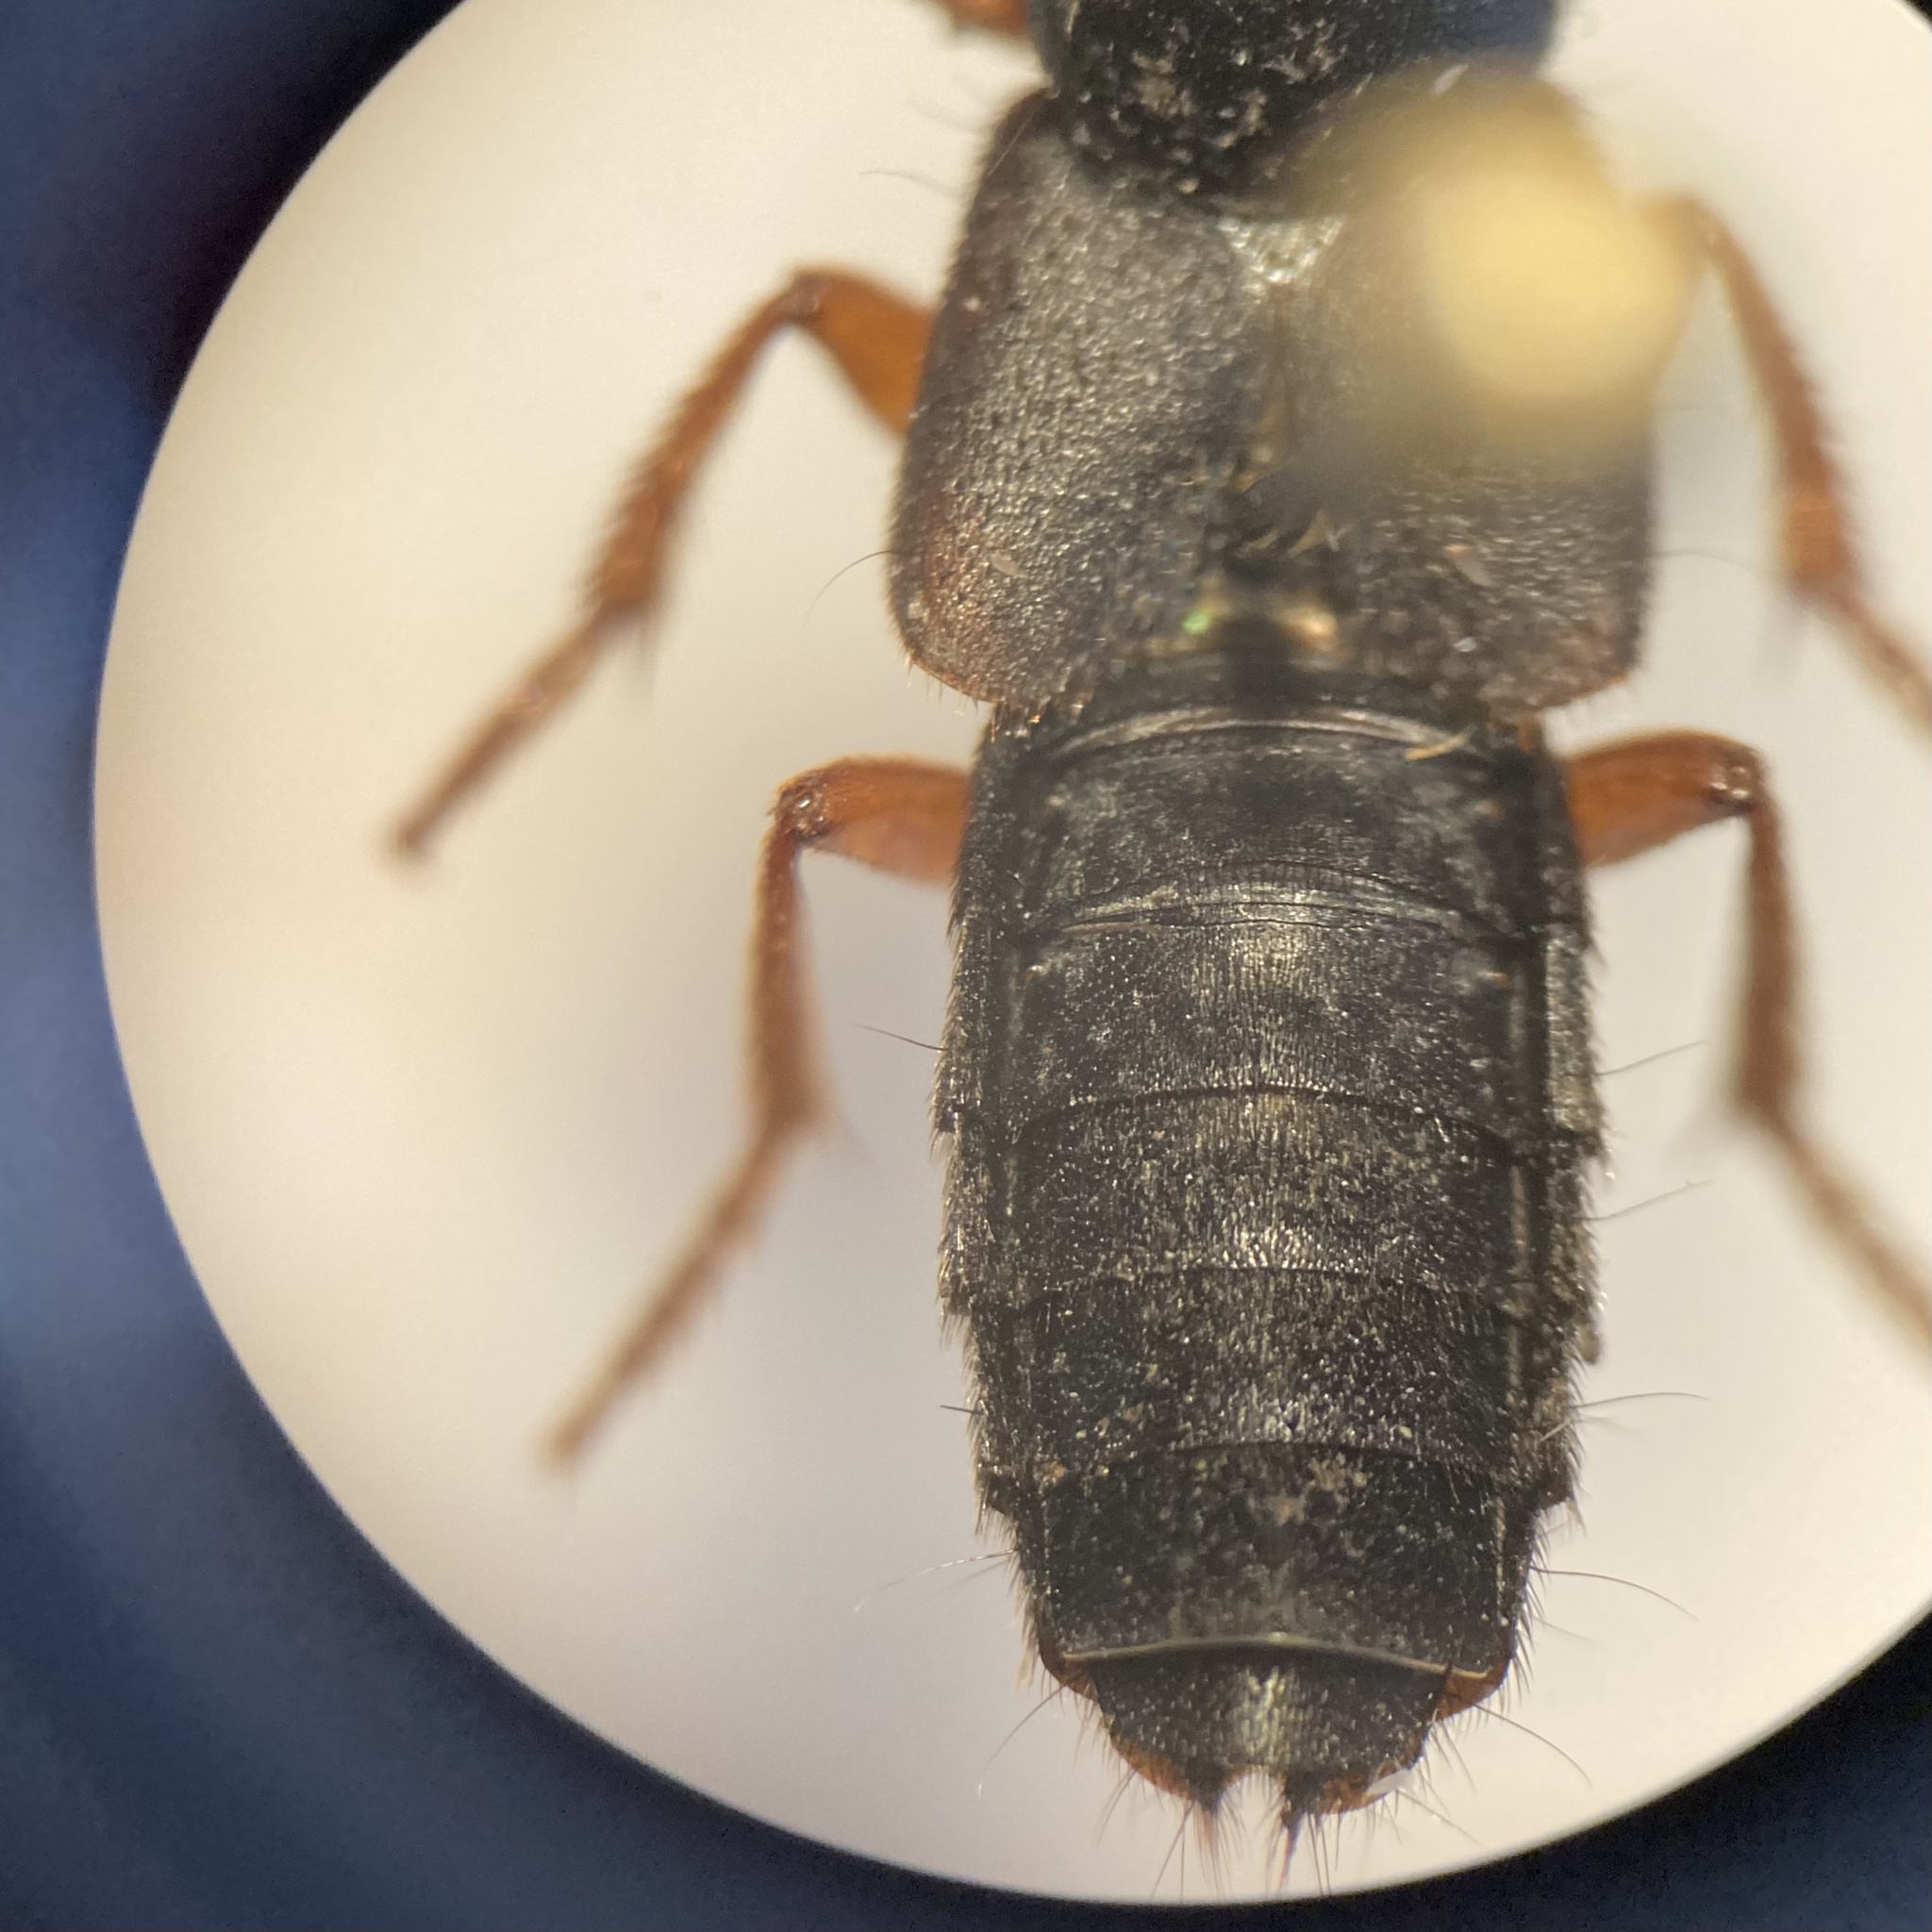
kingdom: Animalia
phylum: Arthropoda
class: Insecta
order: Coleoptera
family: Staphylinidae
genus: Dinothenarus
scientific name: Dinothenarus badipes
